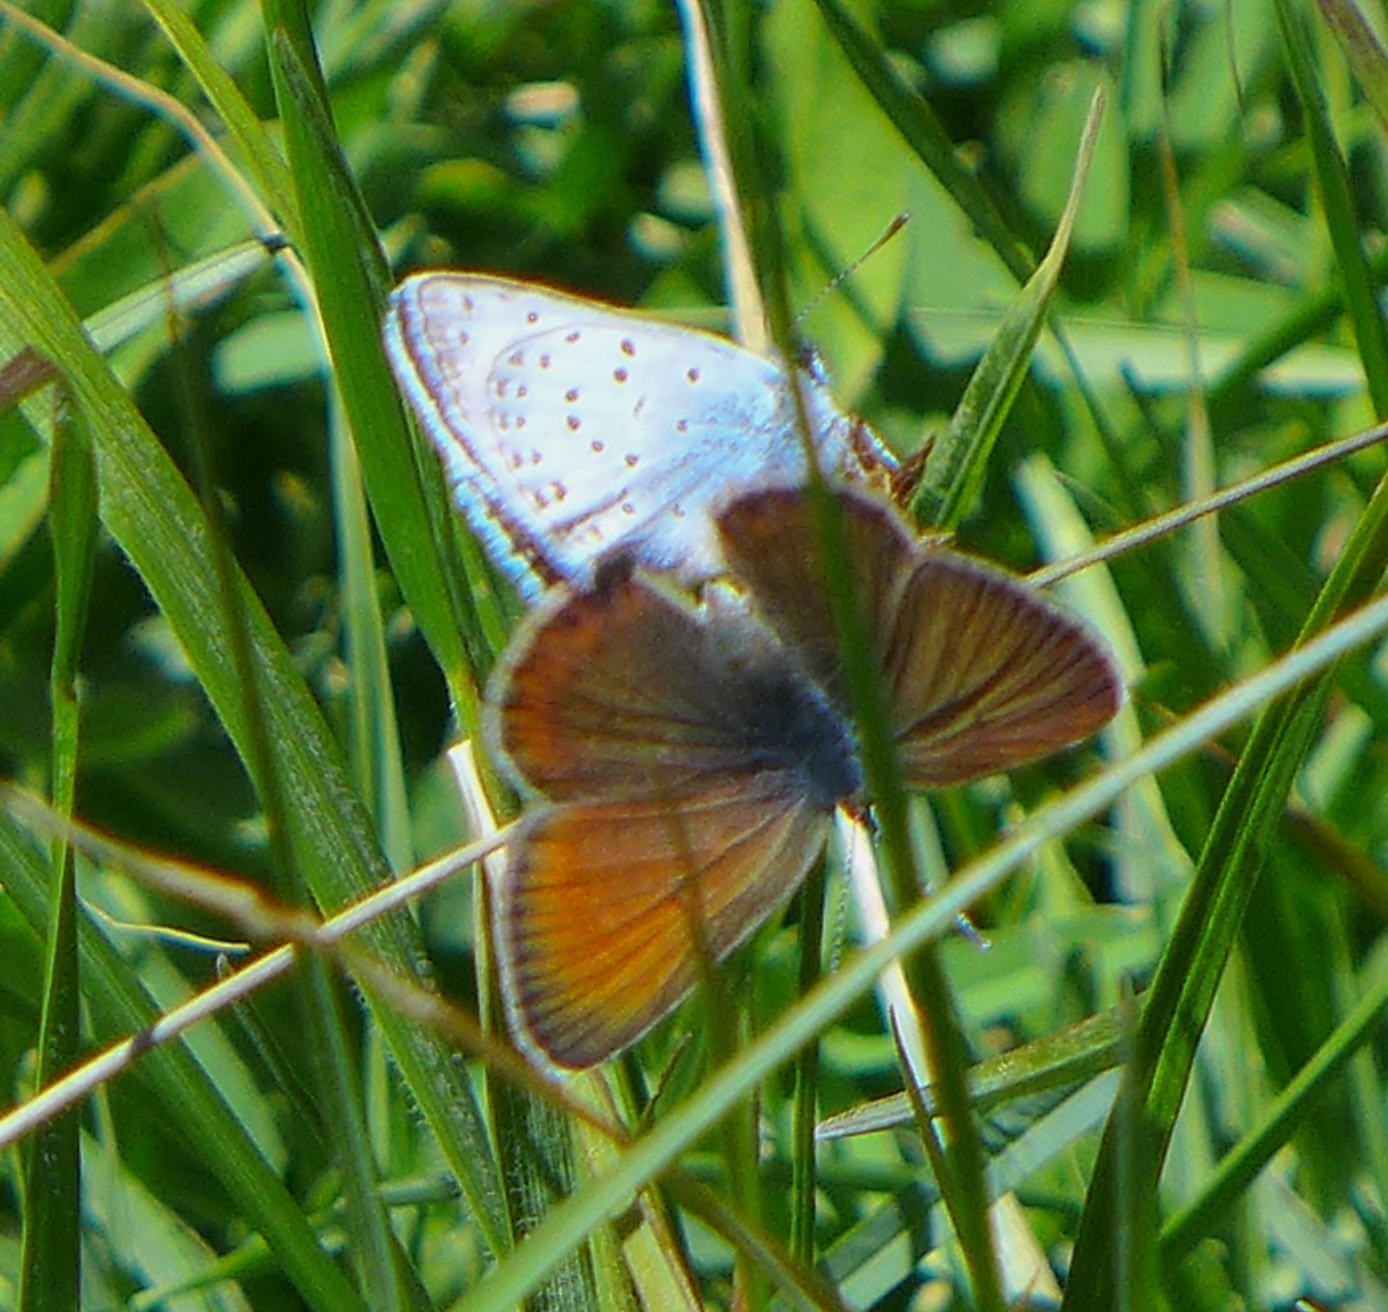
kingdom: Animalia
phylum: Arthropoda
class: Insecta
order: Lepidoptera
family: Lycaenidae
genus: Icaricia
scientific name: Icaricia saepiolus
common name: Greenish blue
